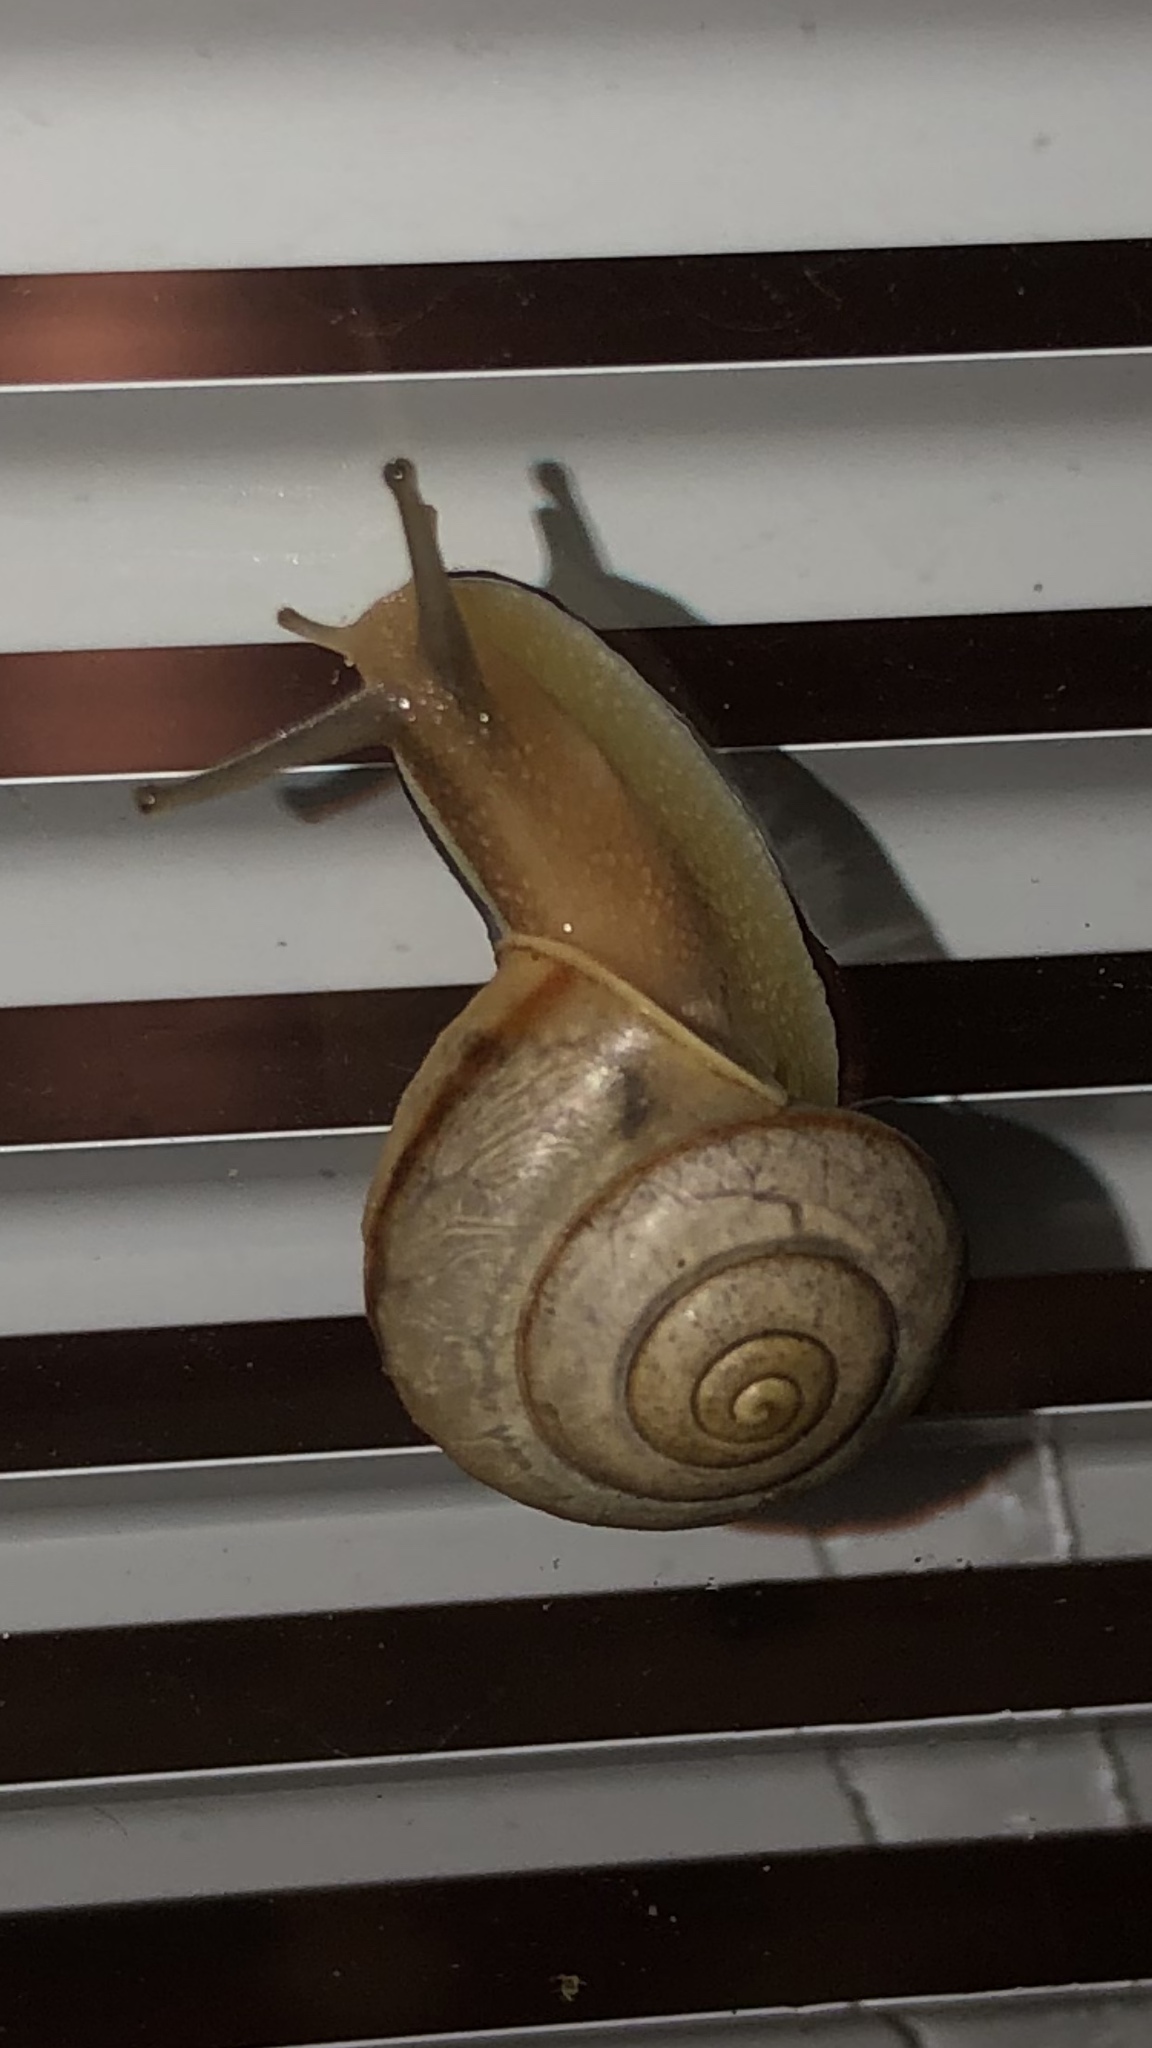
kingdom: Animalia
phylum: Mollusca
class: Gastropoda
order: Stylommatophora
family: Camaenidae
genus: Bradybaena
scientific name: Bradybaena similaris
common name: Asian trampsnail
